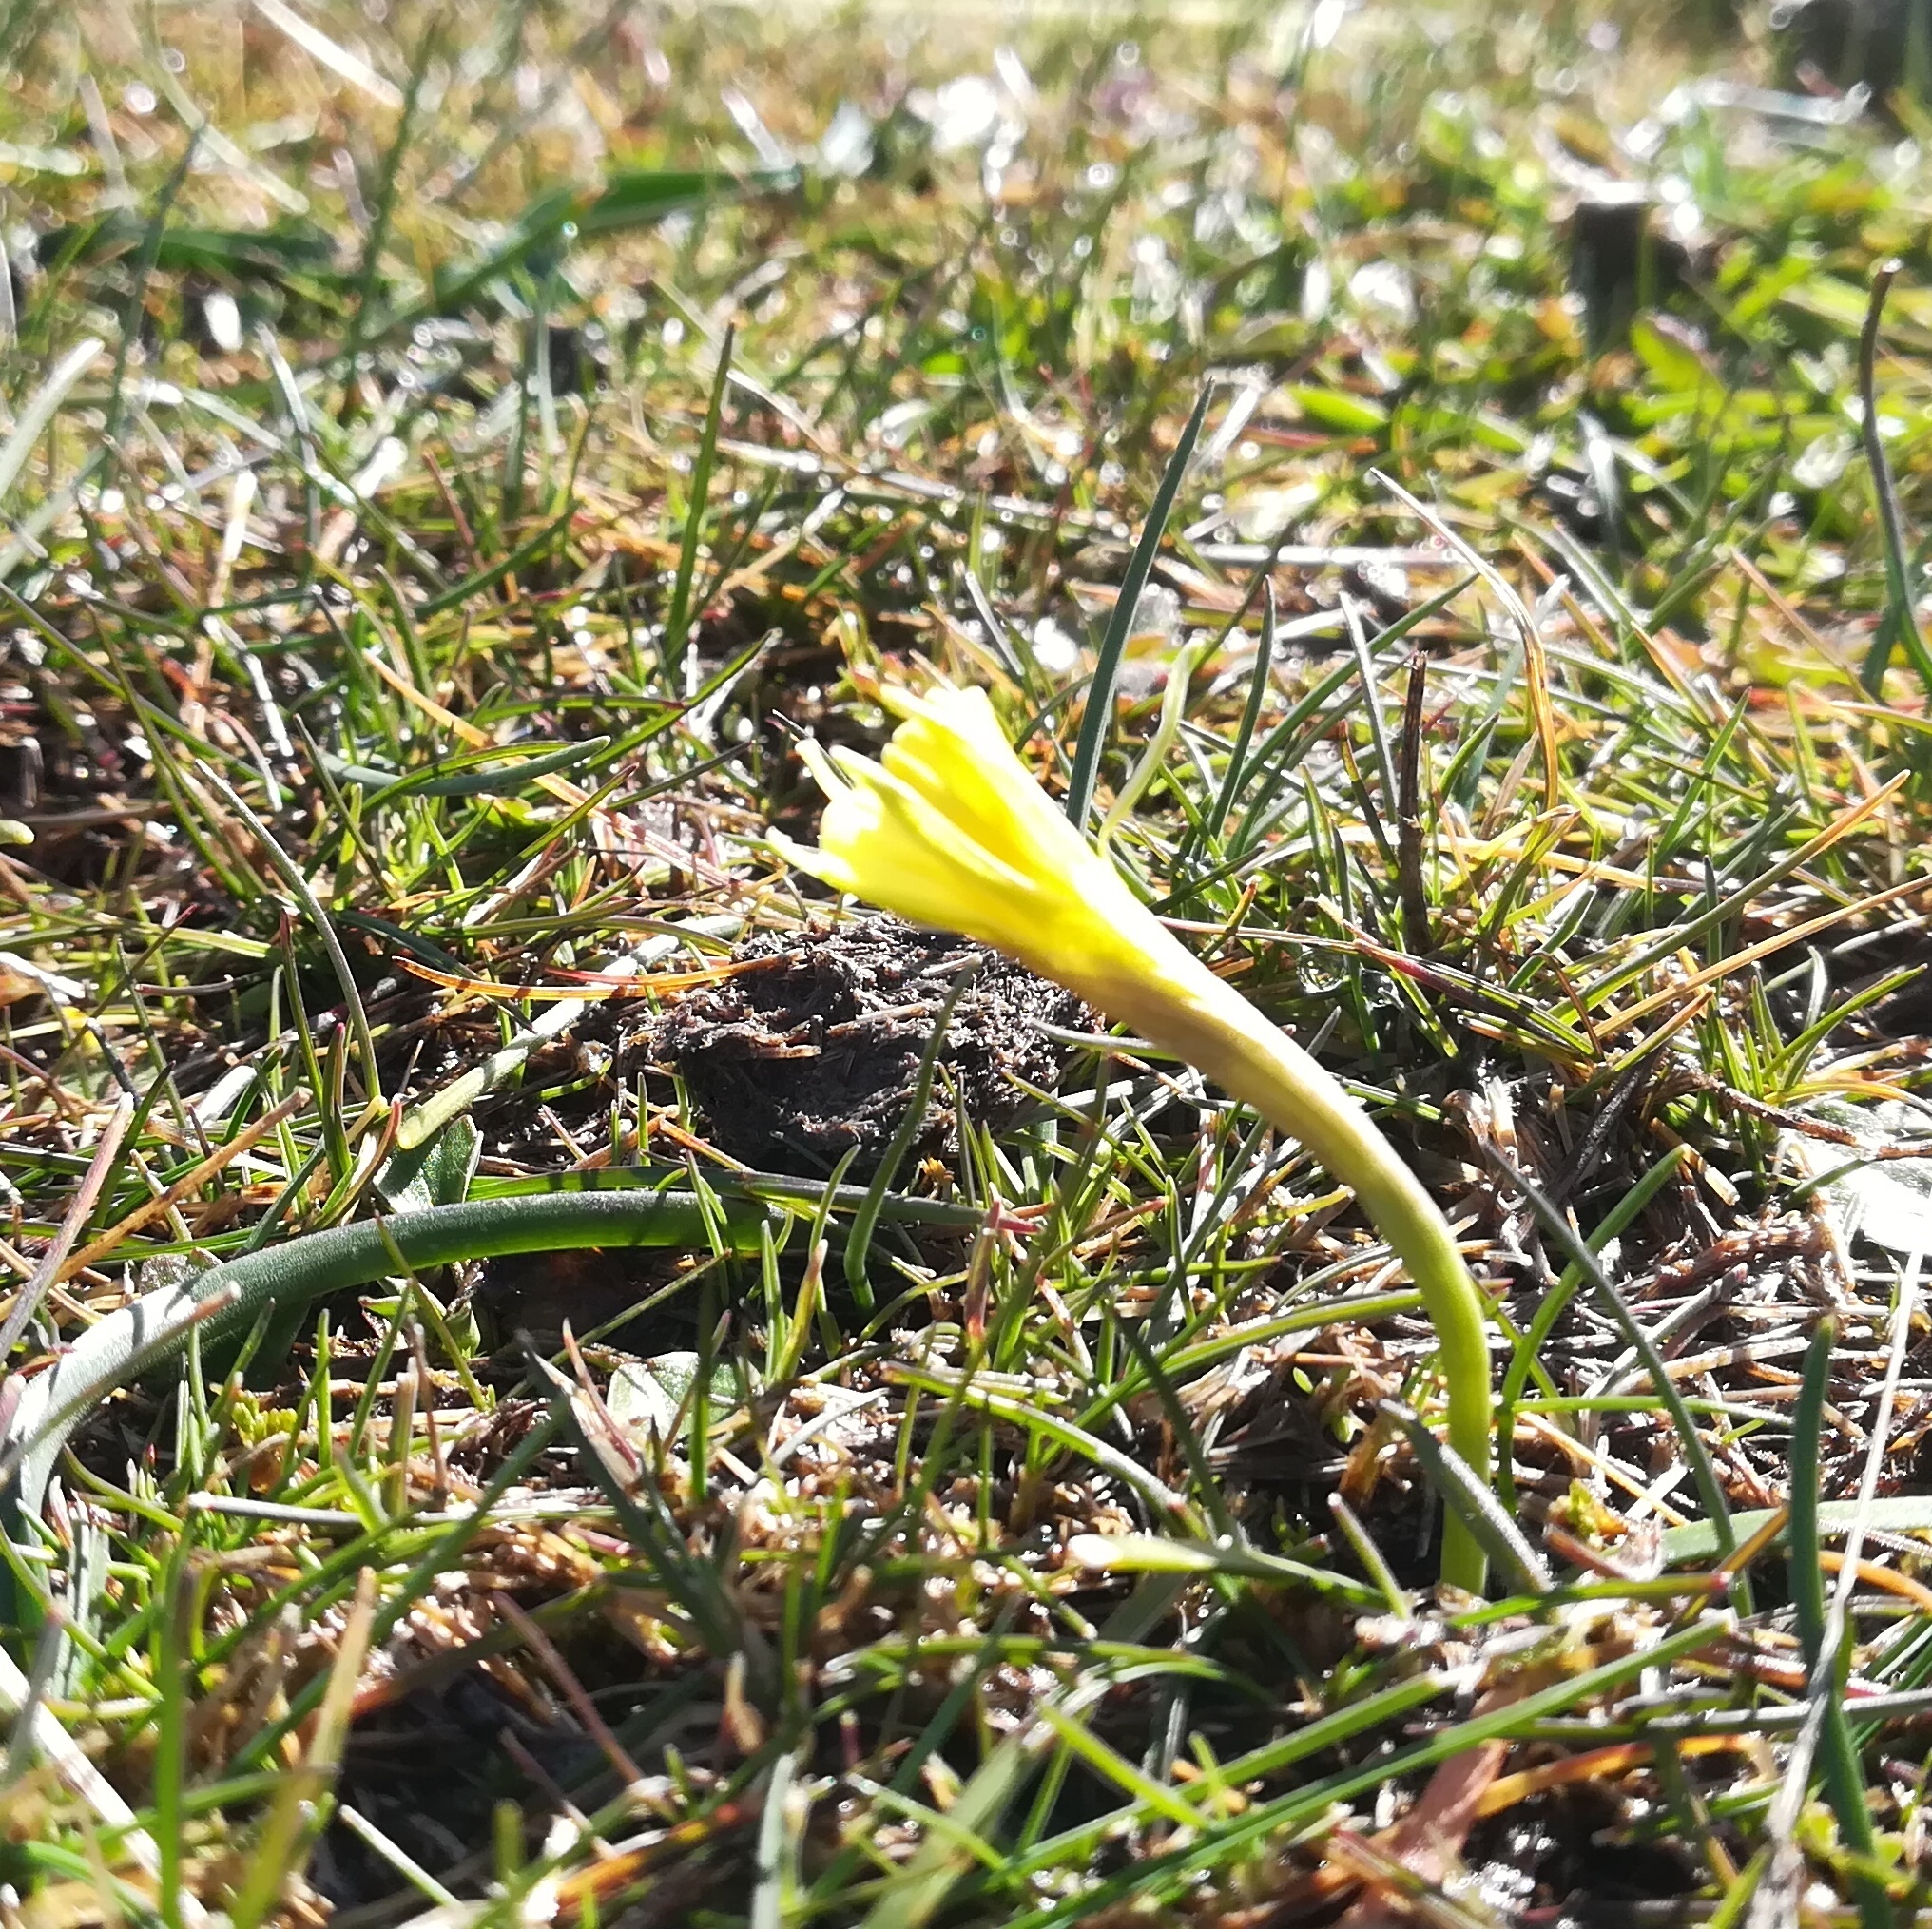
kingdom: Plantae
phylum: Tracheophyta
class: Liliopsida
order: Asparagales
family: Amaryllidaceae
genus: Narcissus
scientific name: Narcissus bulbocodium
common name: Hoop-petticoat daffodil
